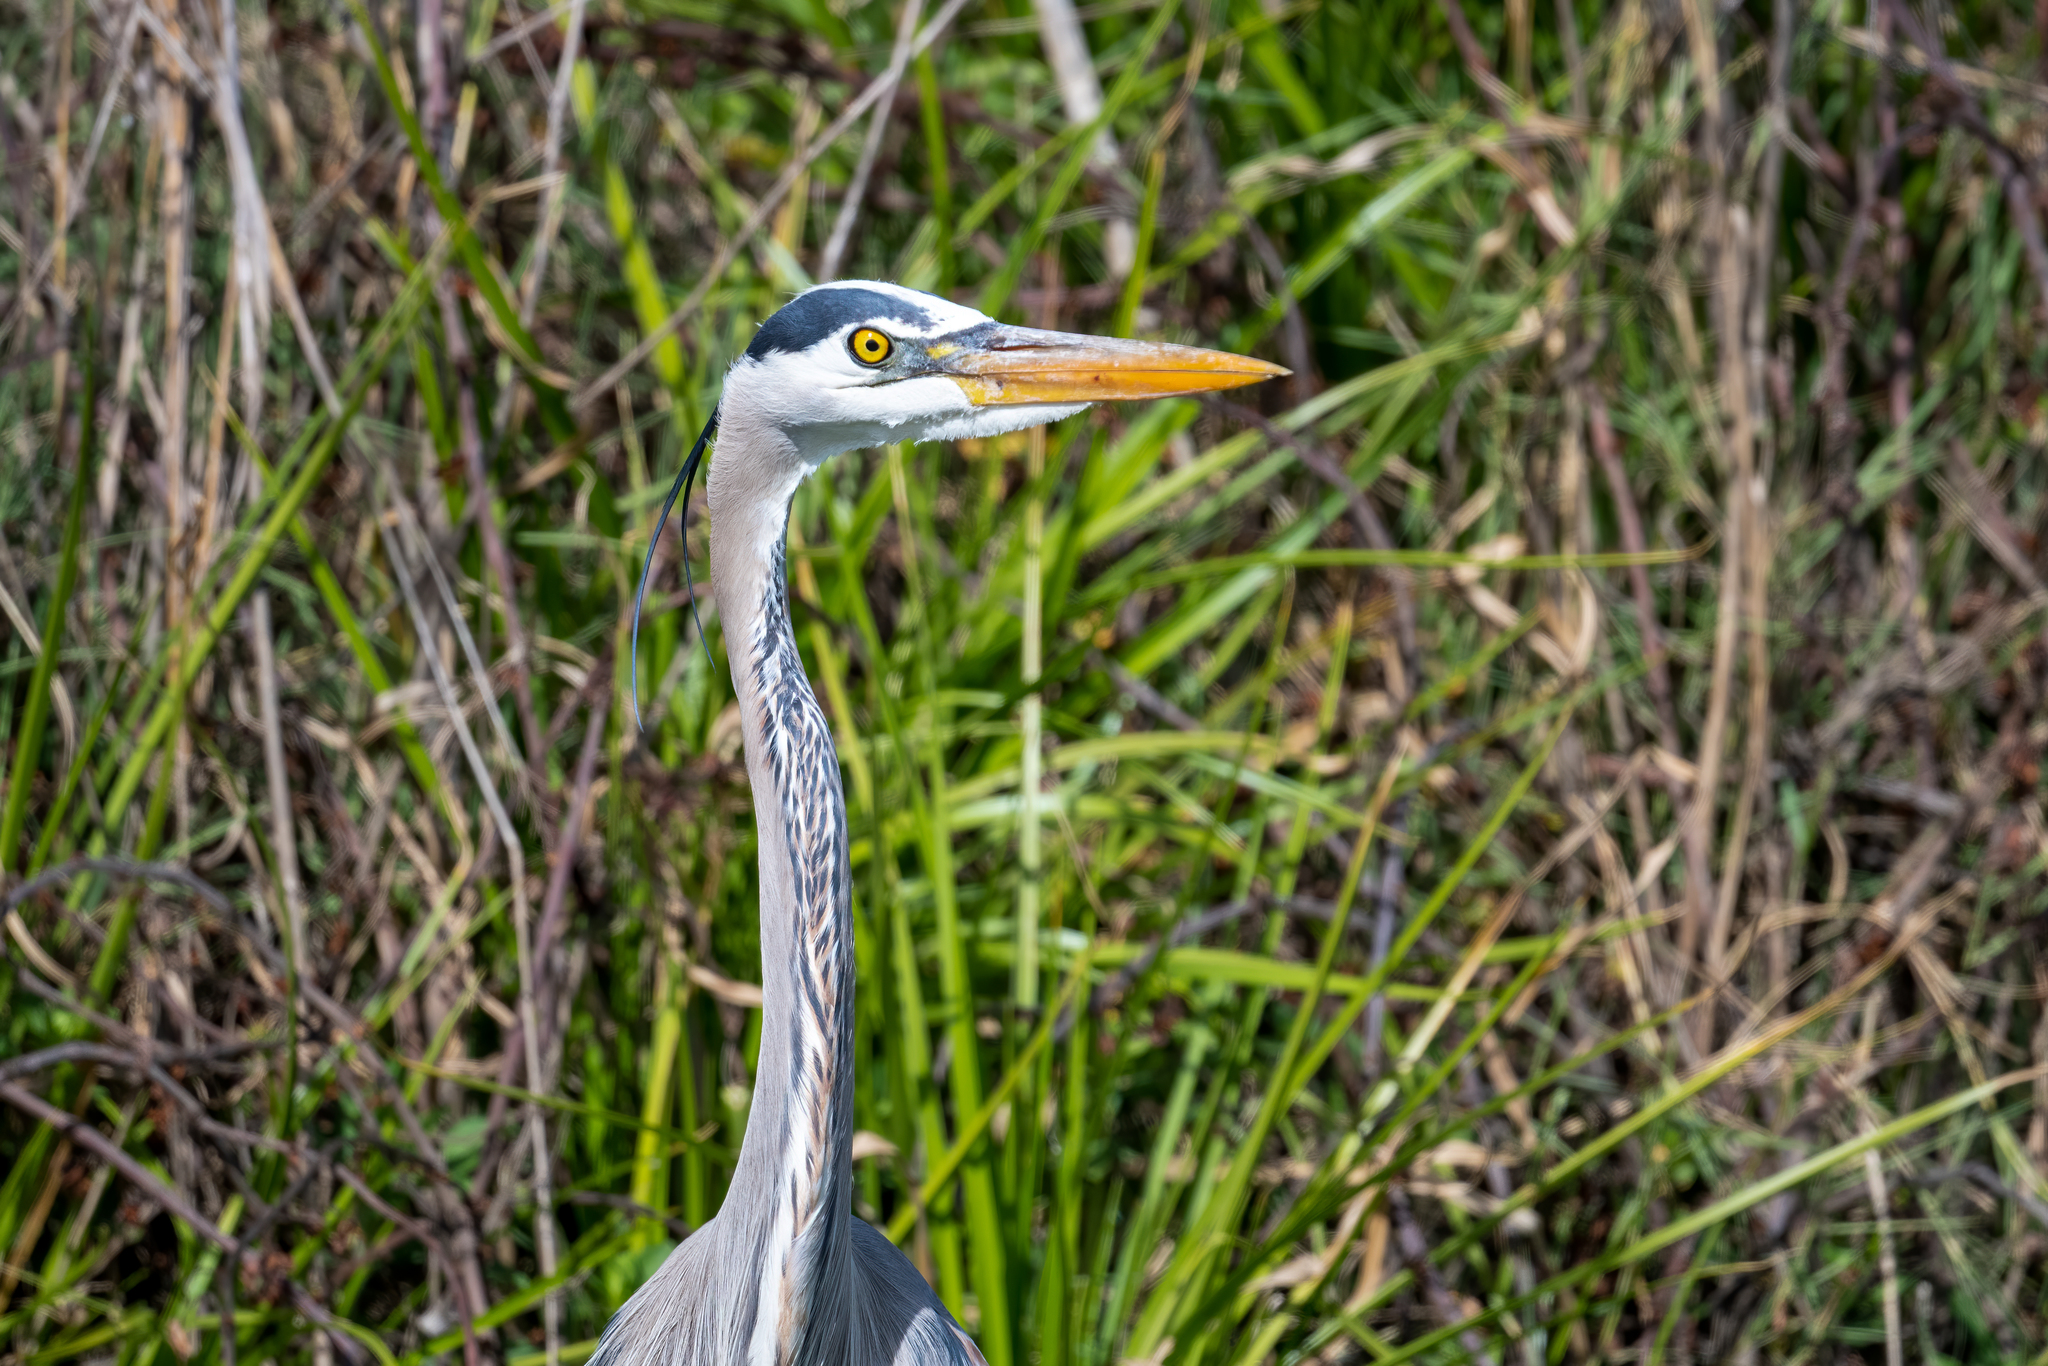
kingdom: Animalia
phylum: Chordata
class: Aves
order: Pelecaniformes
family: Ardeidae
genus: Ardea
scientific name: Ardea herodias
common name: Great blue heron
